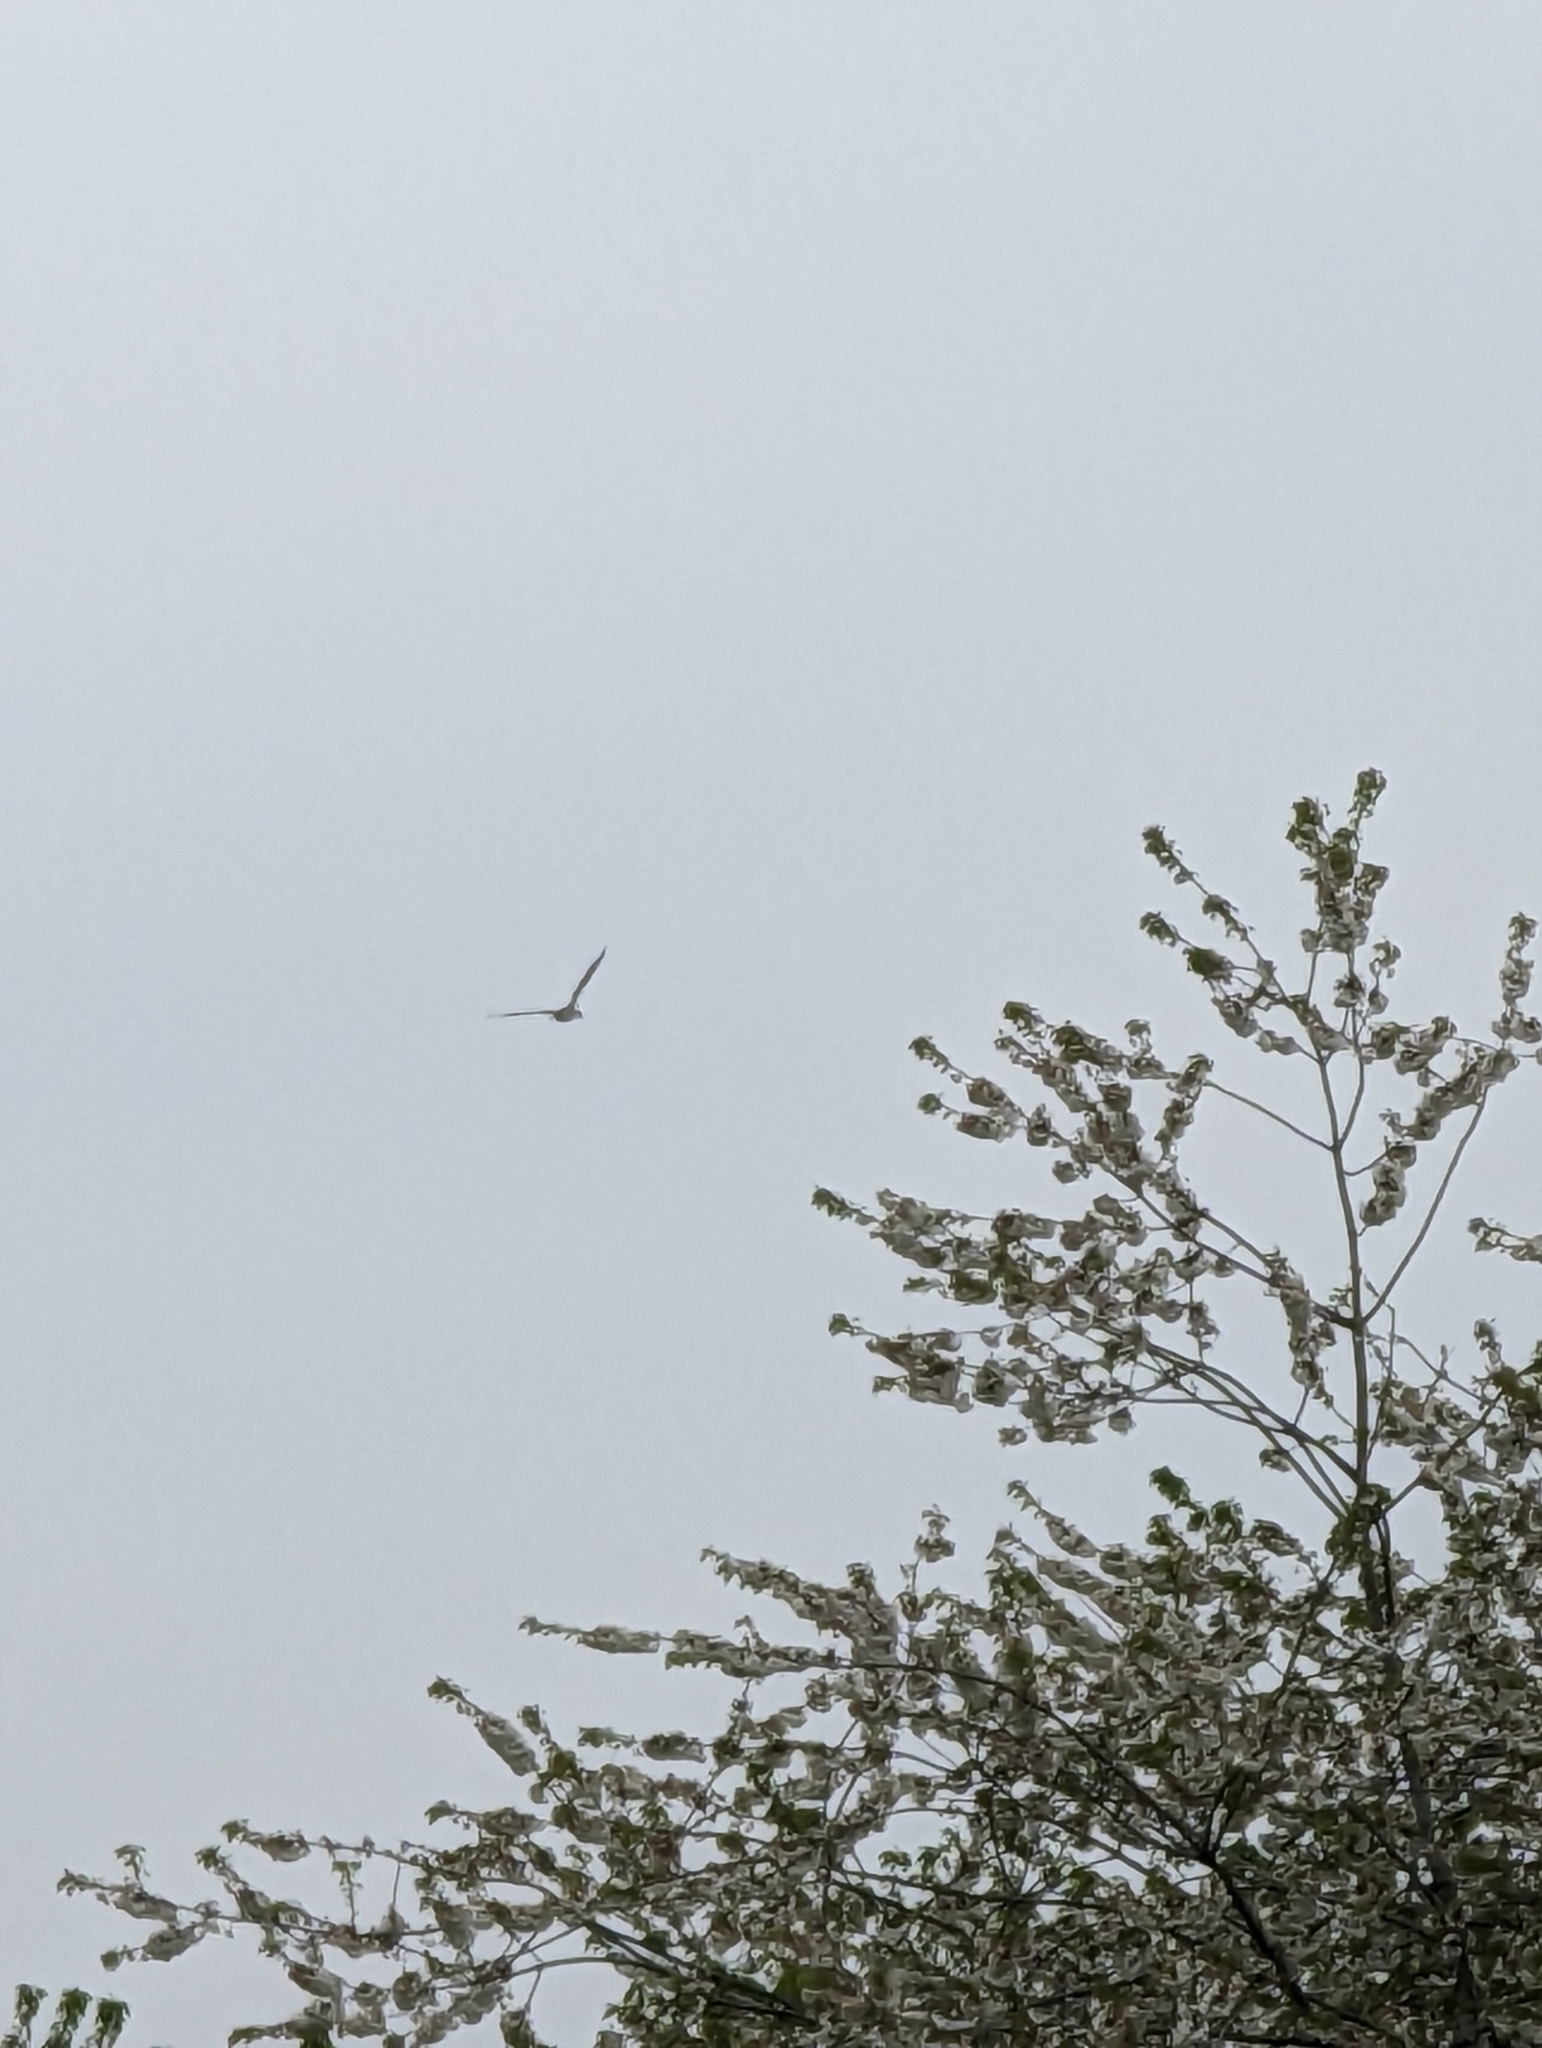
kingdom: Animalia
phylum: Chordata
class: Aves
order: Anseriformes
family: Anatidae
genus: Branta
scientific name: Branta canadensis
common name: Canada goose
